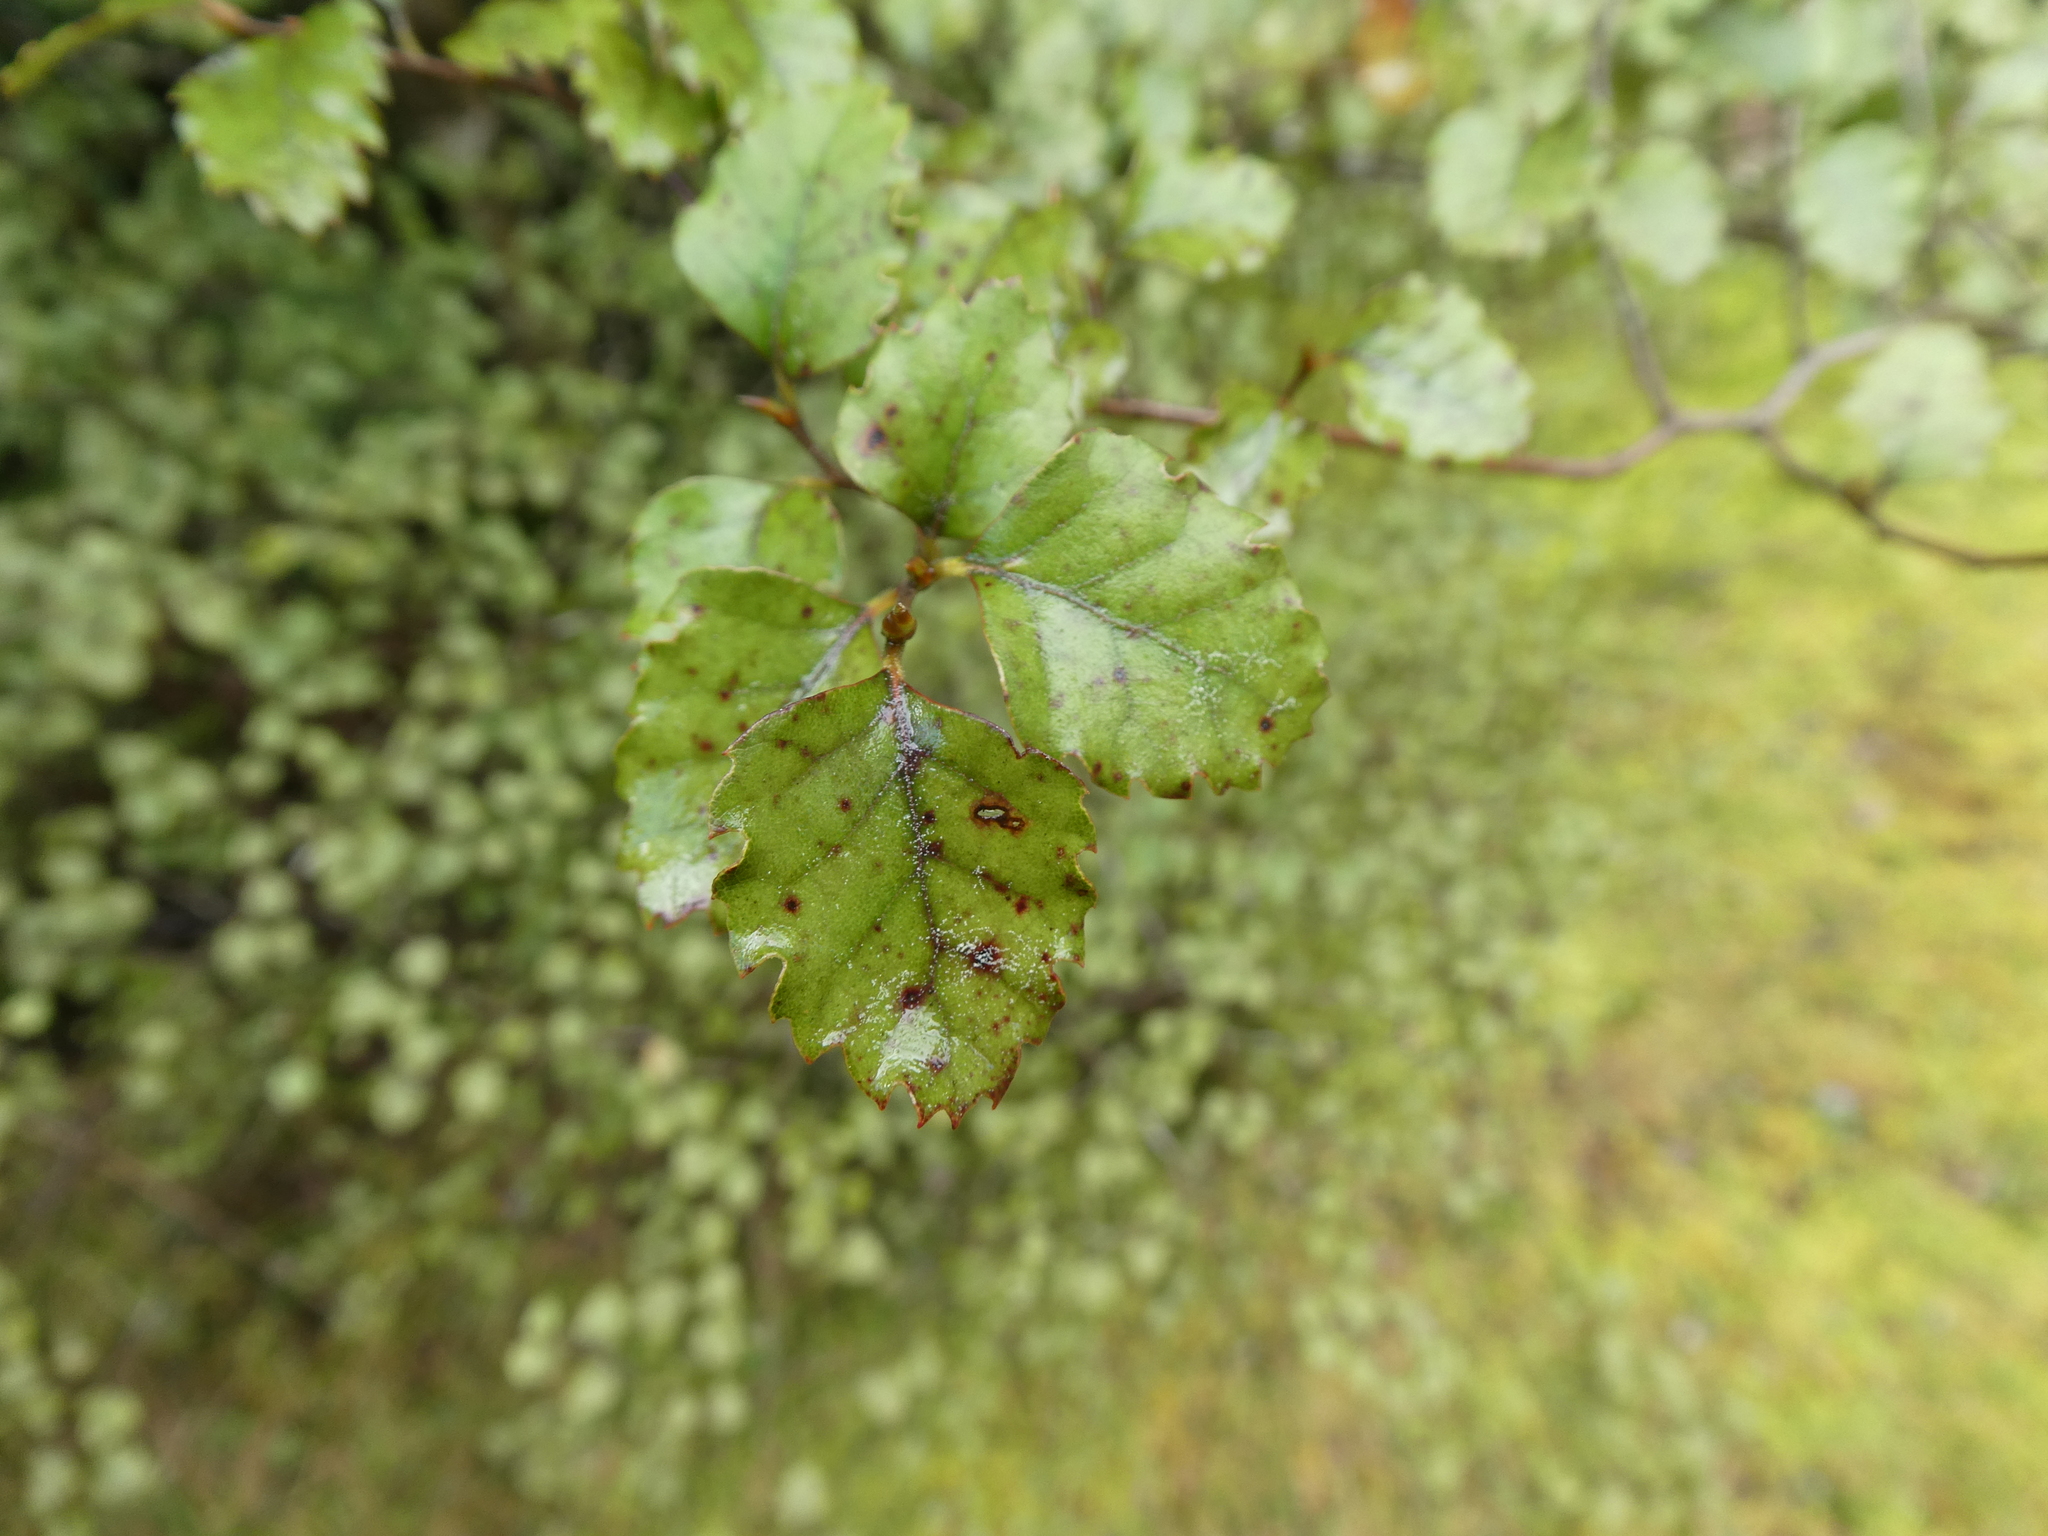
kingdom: Plantae
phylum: Tracheophyta
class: Magnoliopsida
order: Fagales
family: Nothofagaceae
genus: Nothofagus
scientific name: Nothofagus fusca
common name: Red beech
